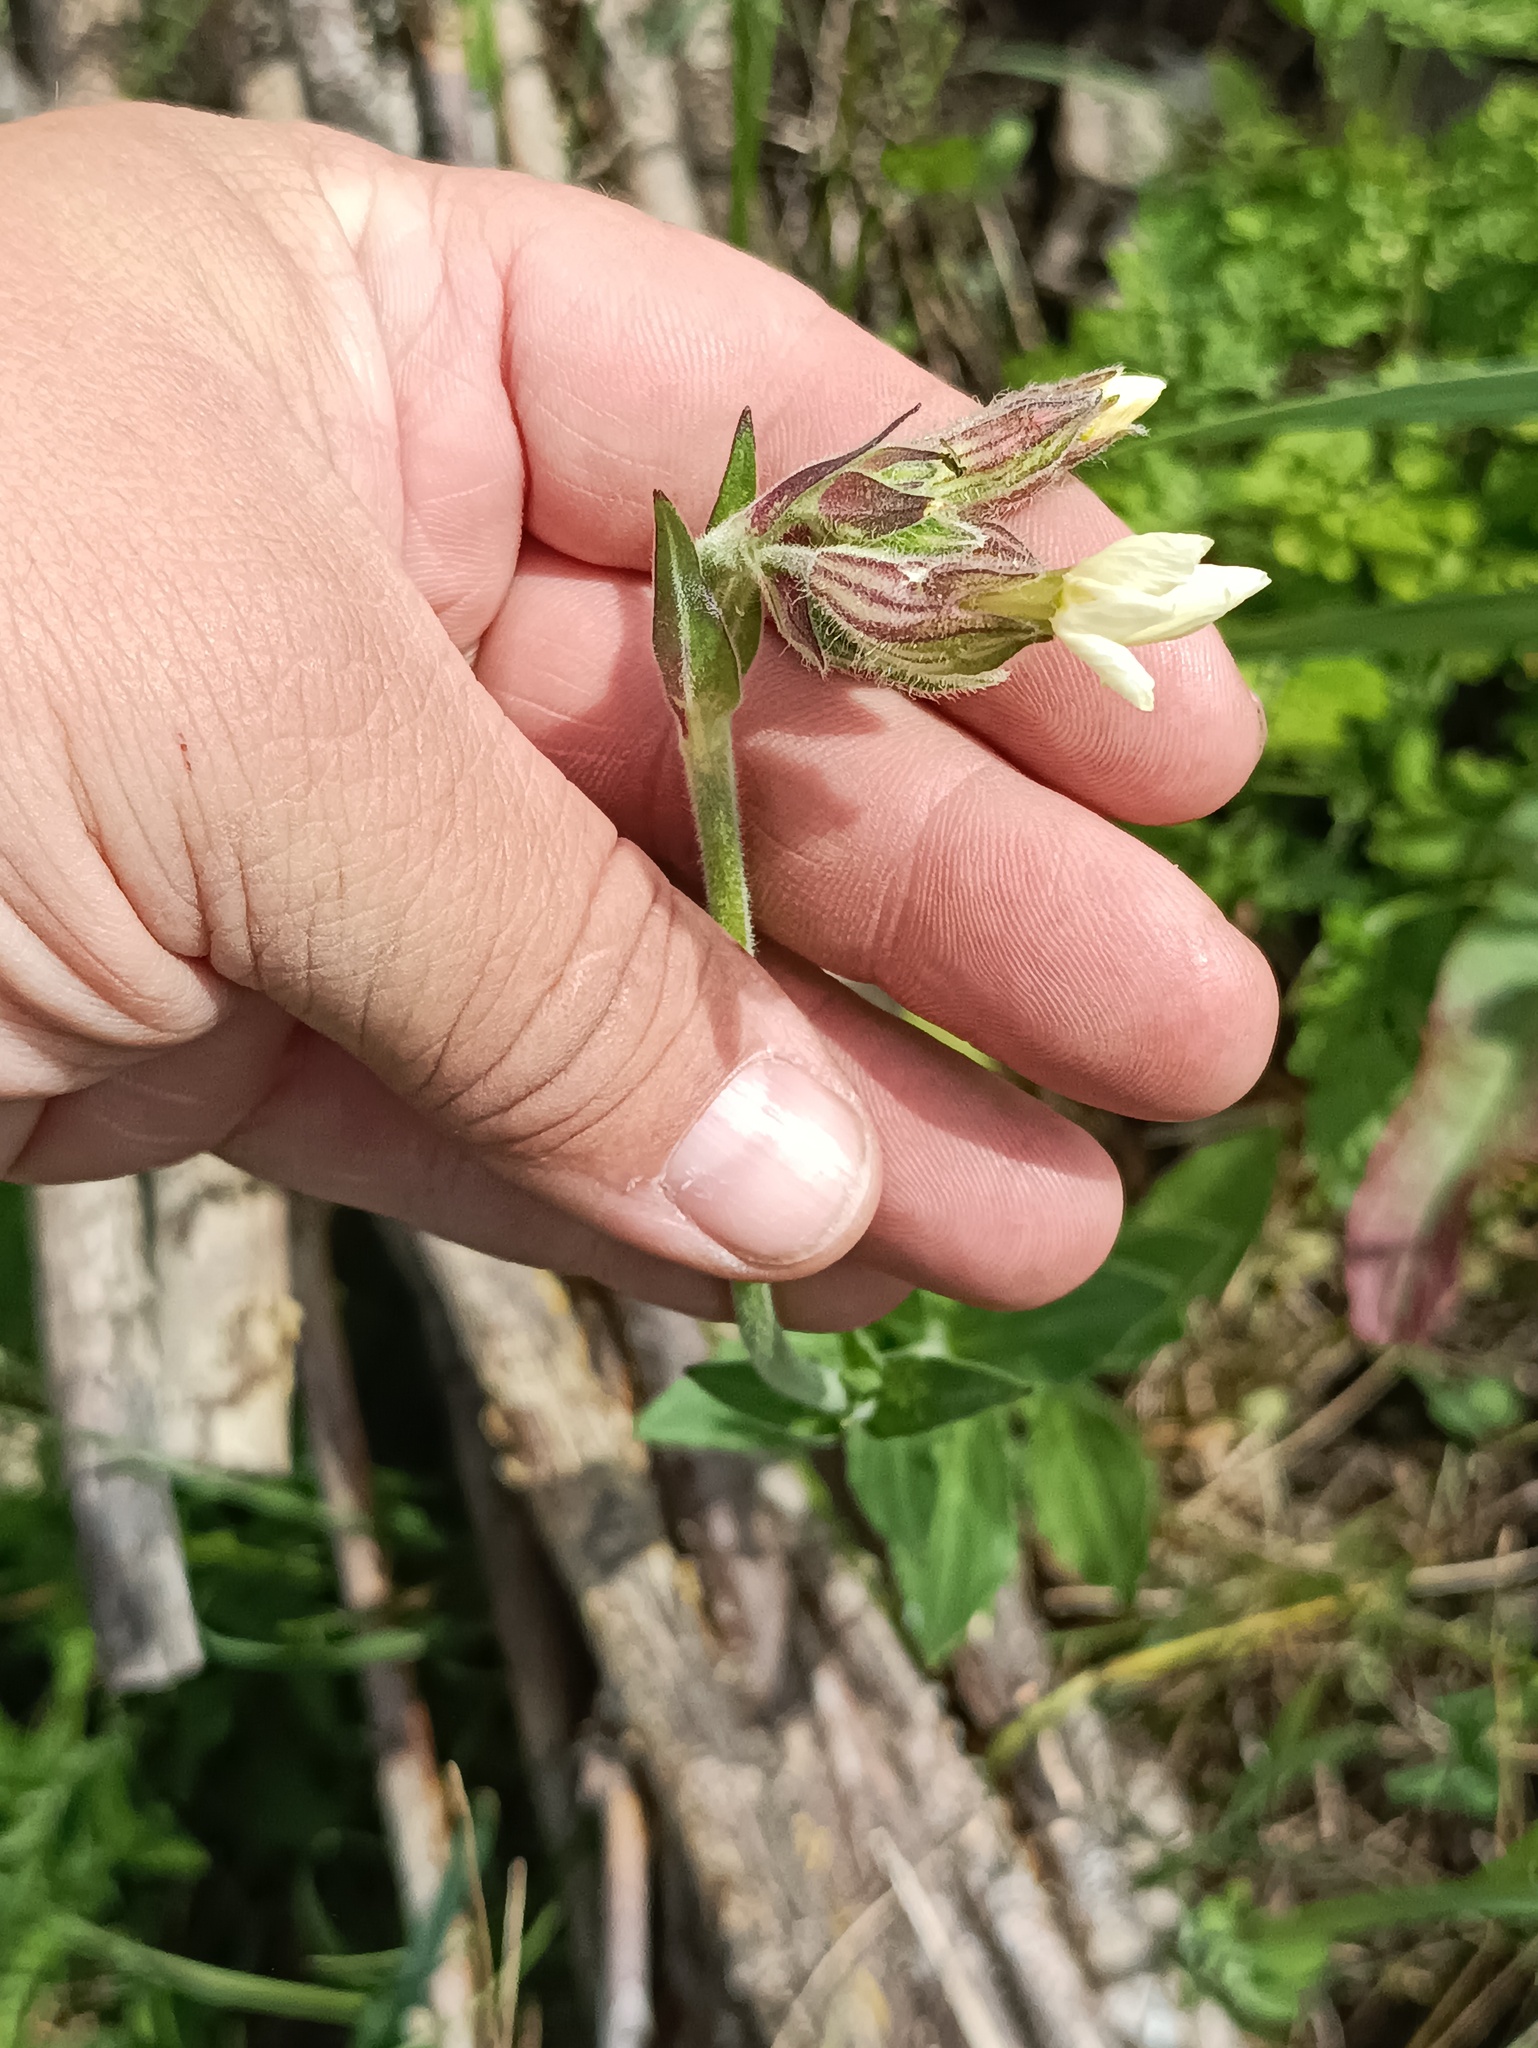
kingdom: Plantae
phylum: Tracheophyta
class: Magnoliopsida
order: Caryophyllales
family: Caryophyllaceae
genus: Silene
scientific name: Silene latifolia
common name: White campion
